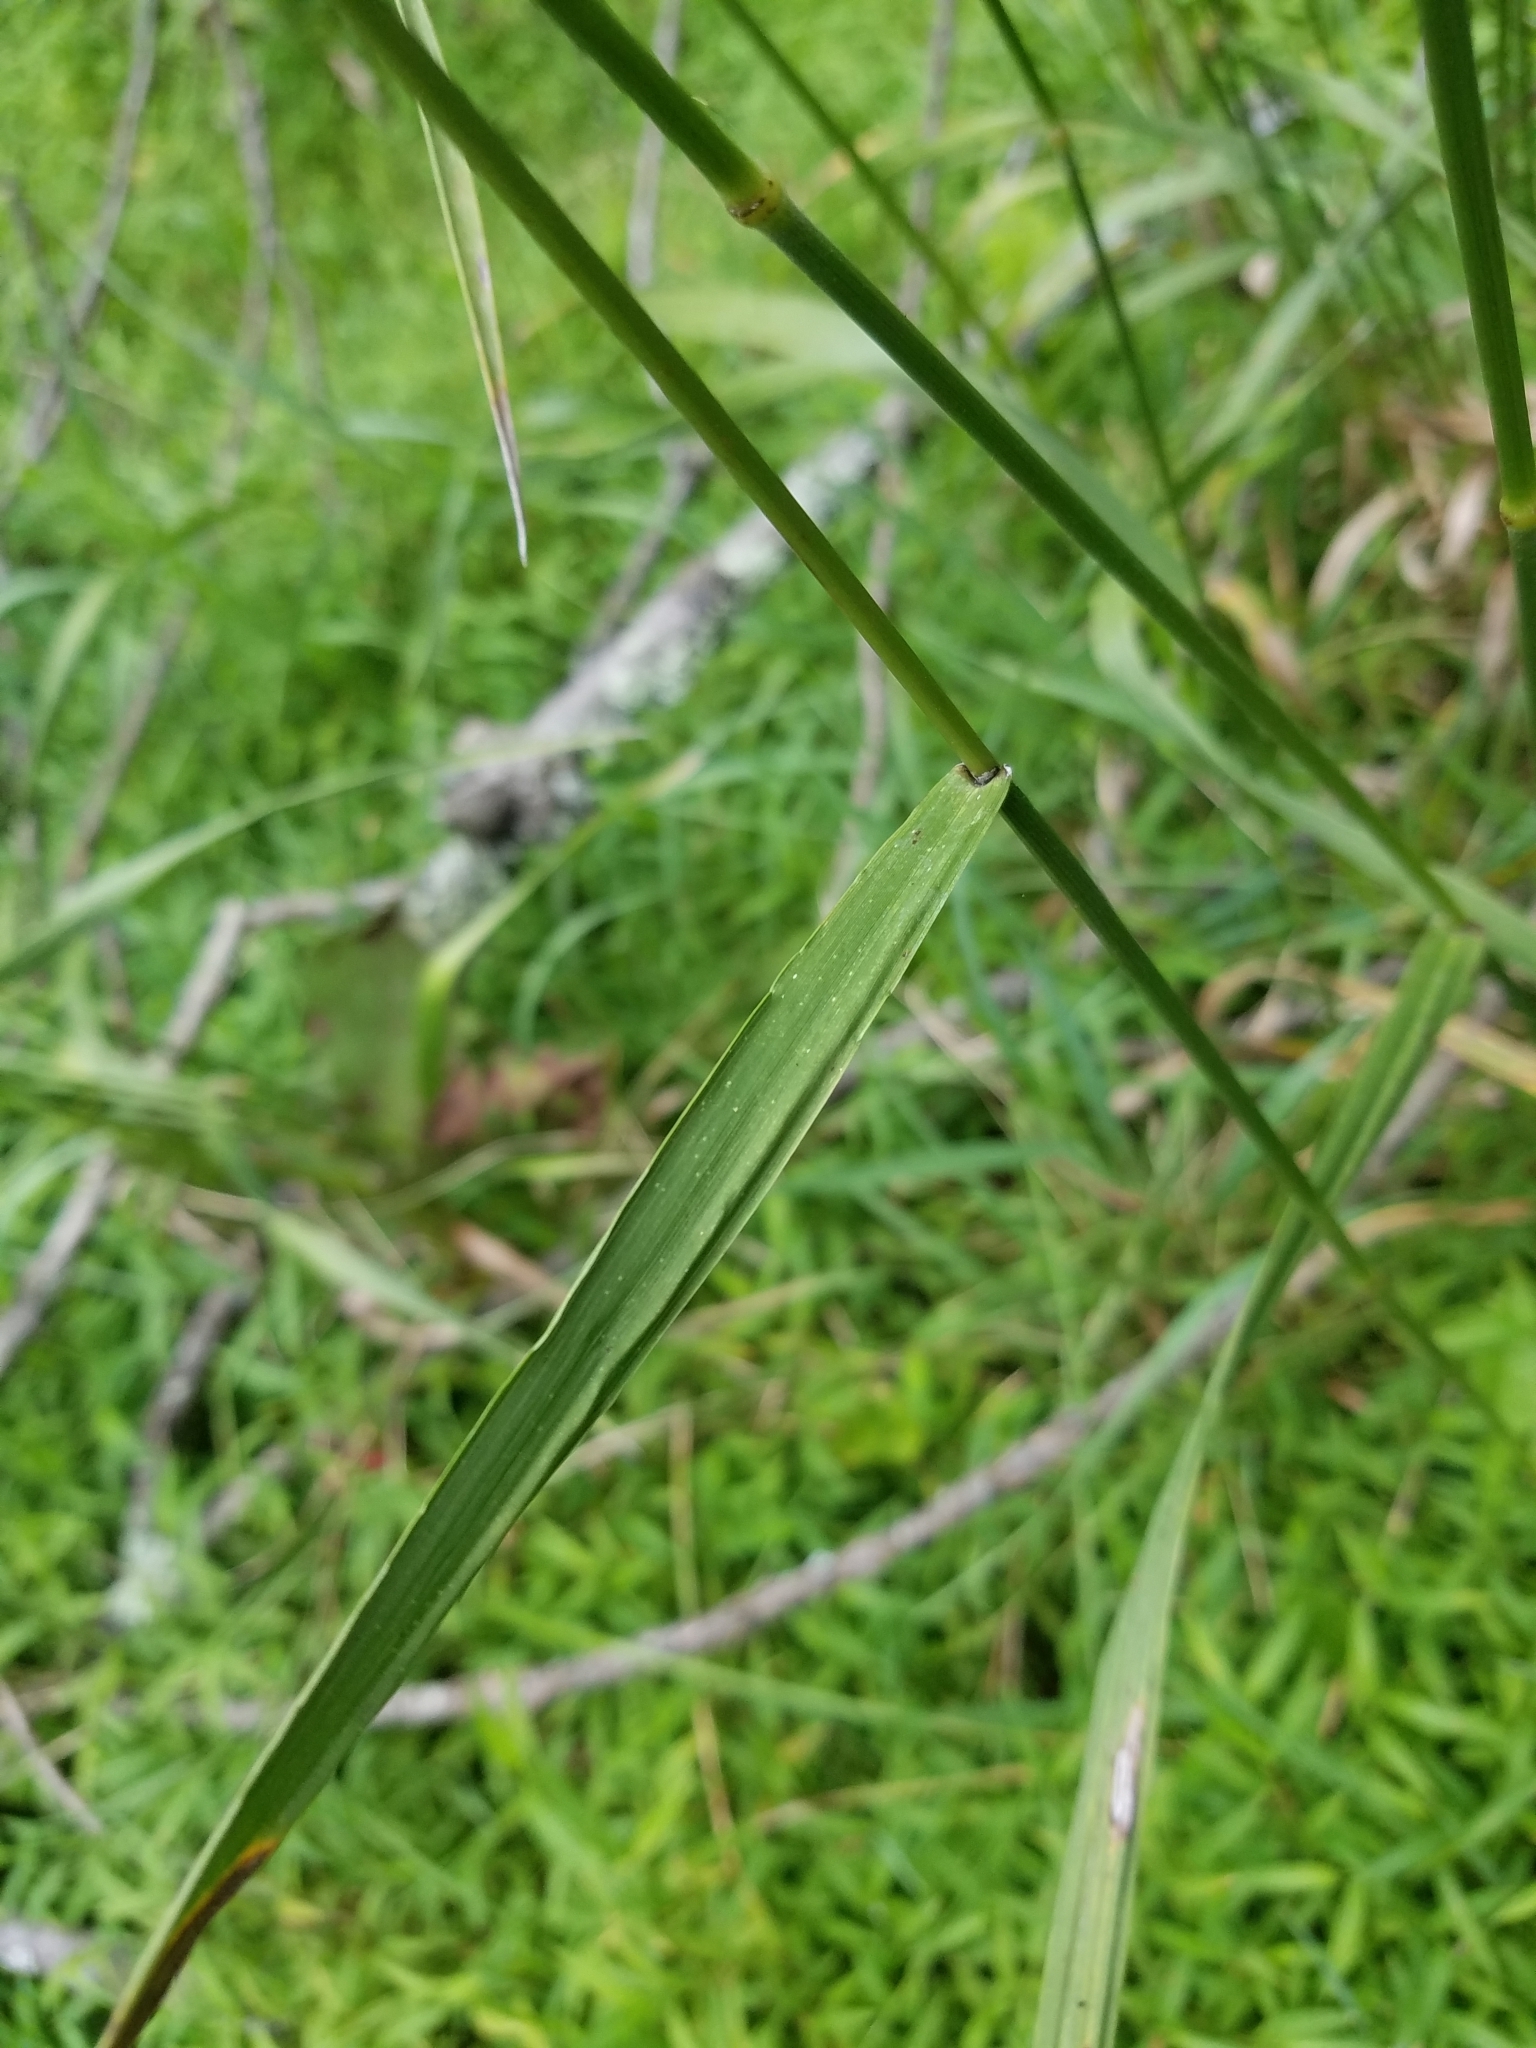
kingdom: Plantae
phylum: Tracheophyta
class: Liliopsida
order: Poales
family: Poaceae
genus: Bromus
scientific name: Bromus inermis
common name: Smooth brome
